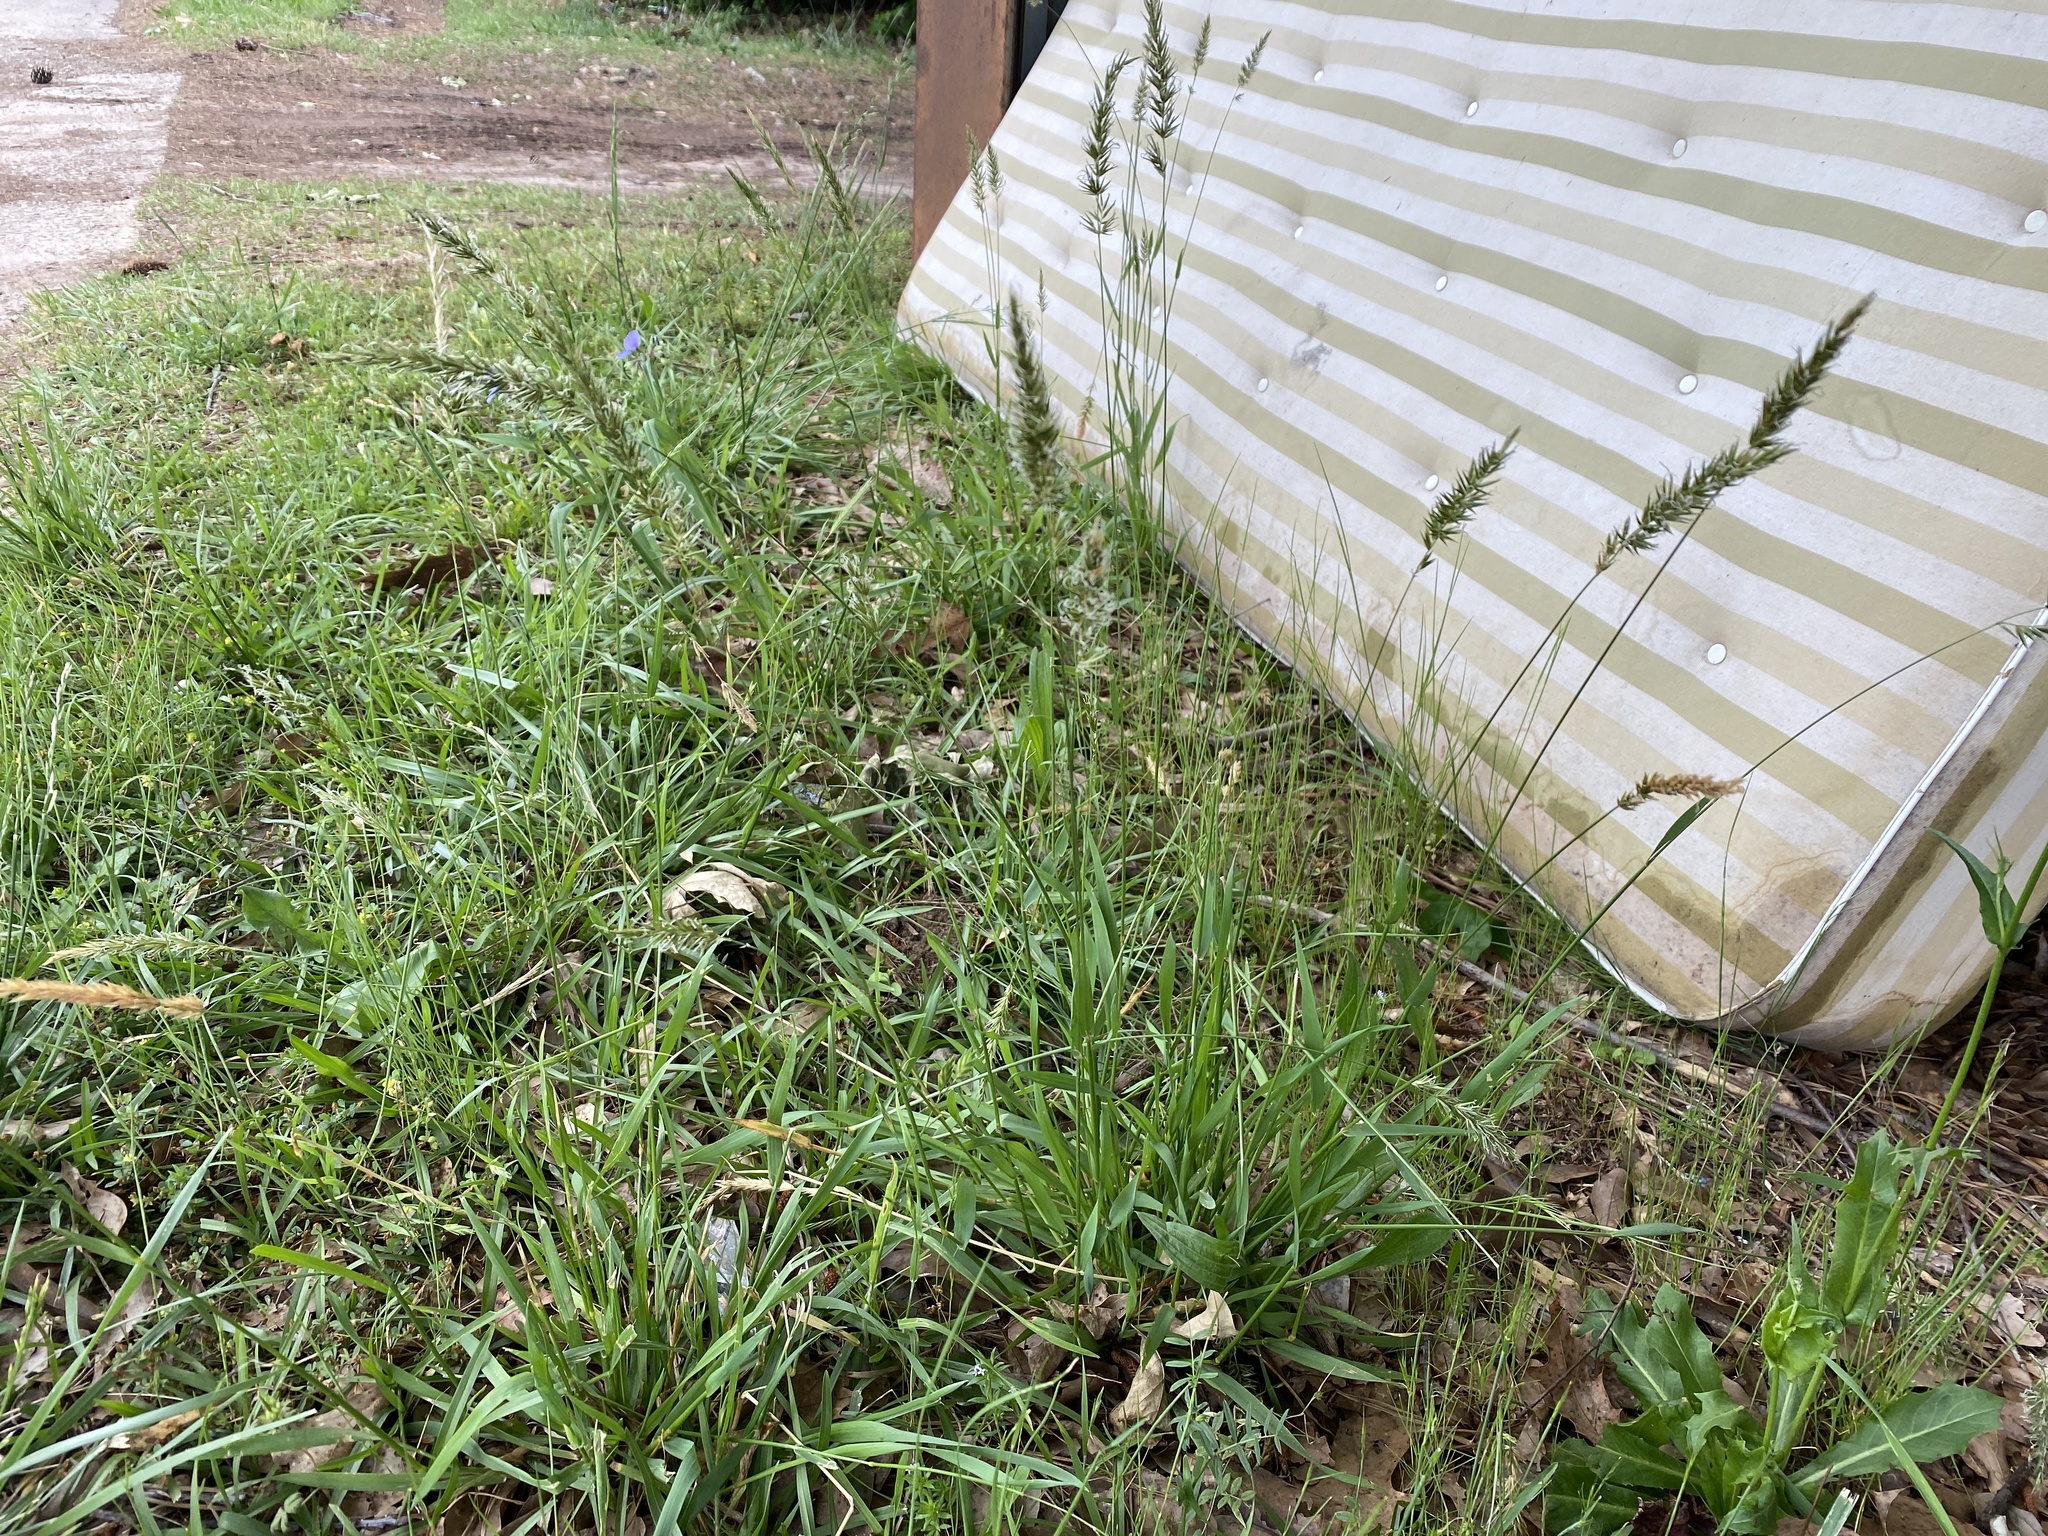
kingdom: Plantae
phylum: Tracheophyta
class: Liliopsida
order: Poales
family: Poaceae
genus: Anthoxanthum
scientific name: Anthoxanthum odoratum
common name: Sweet vernalgrass
